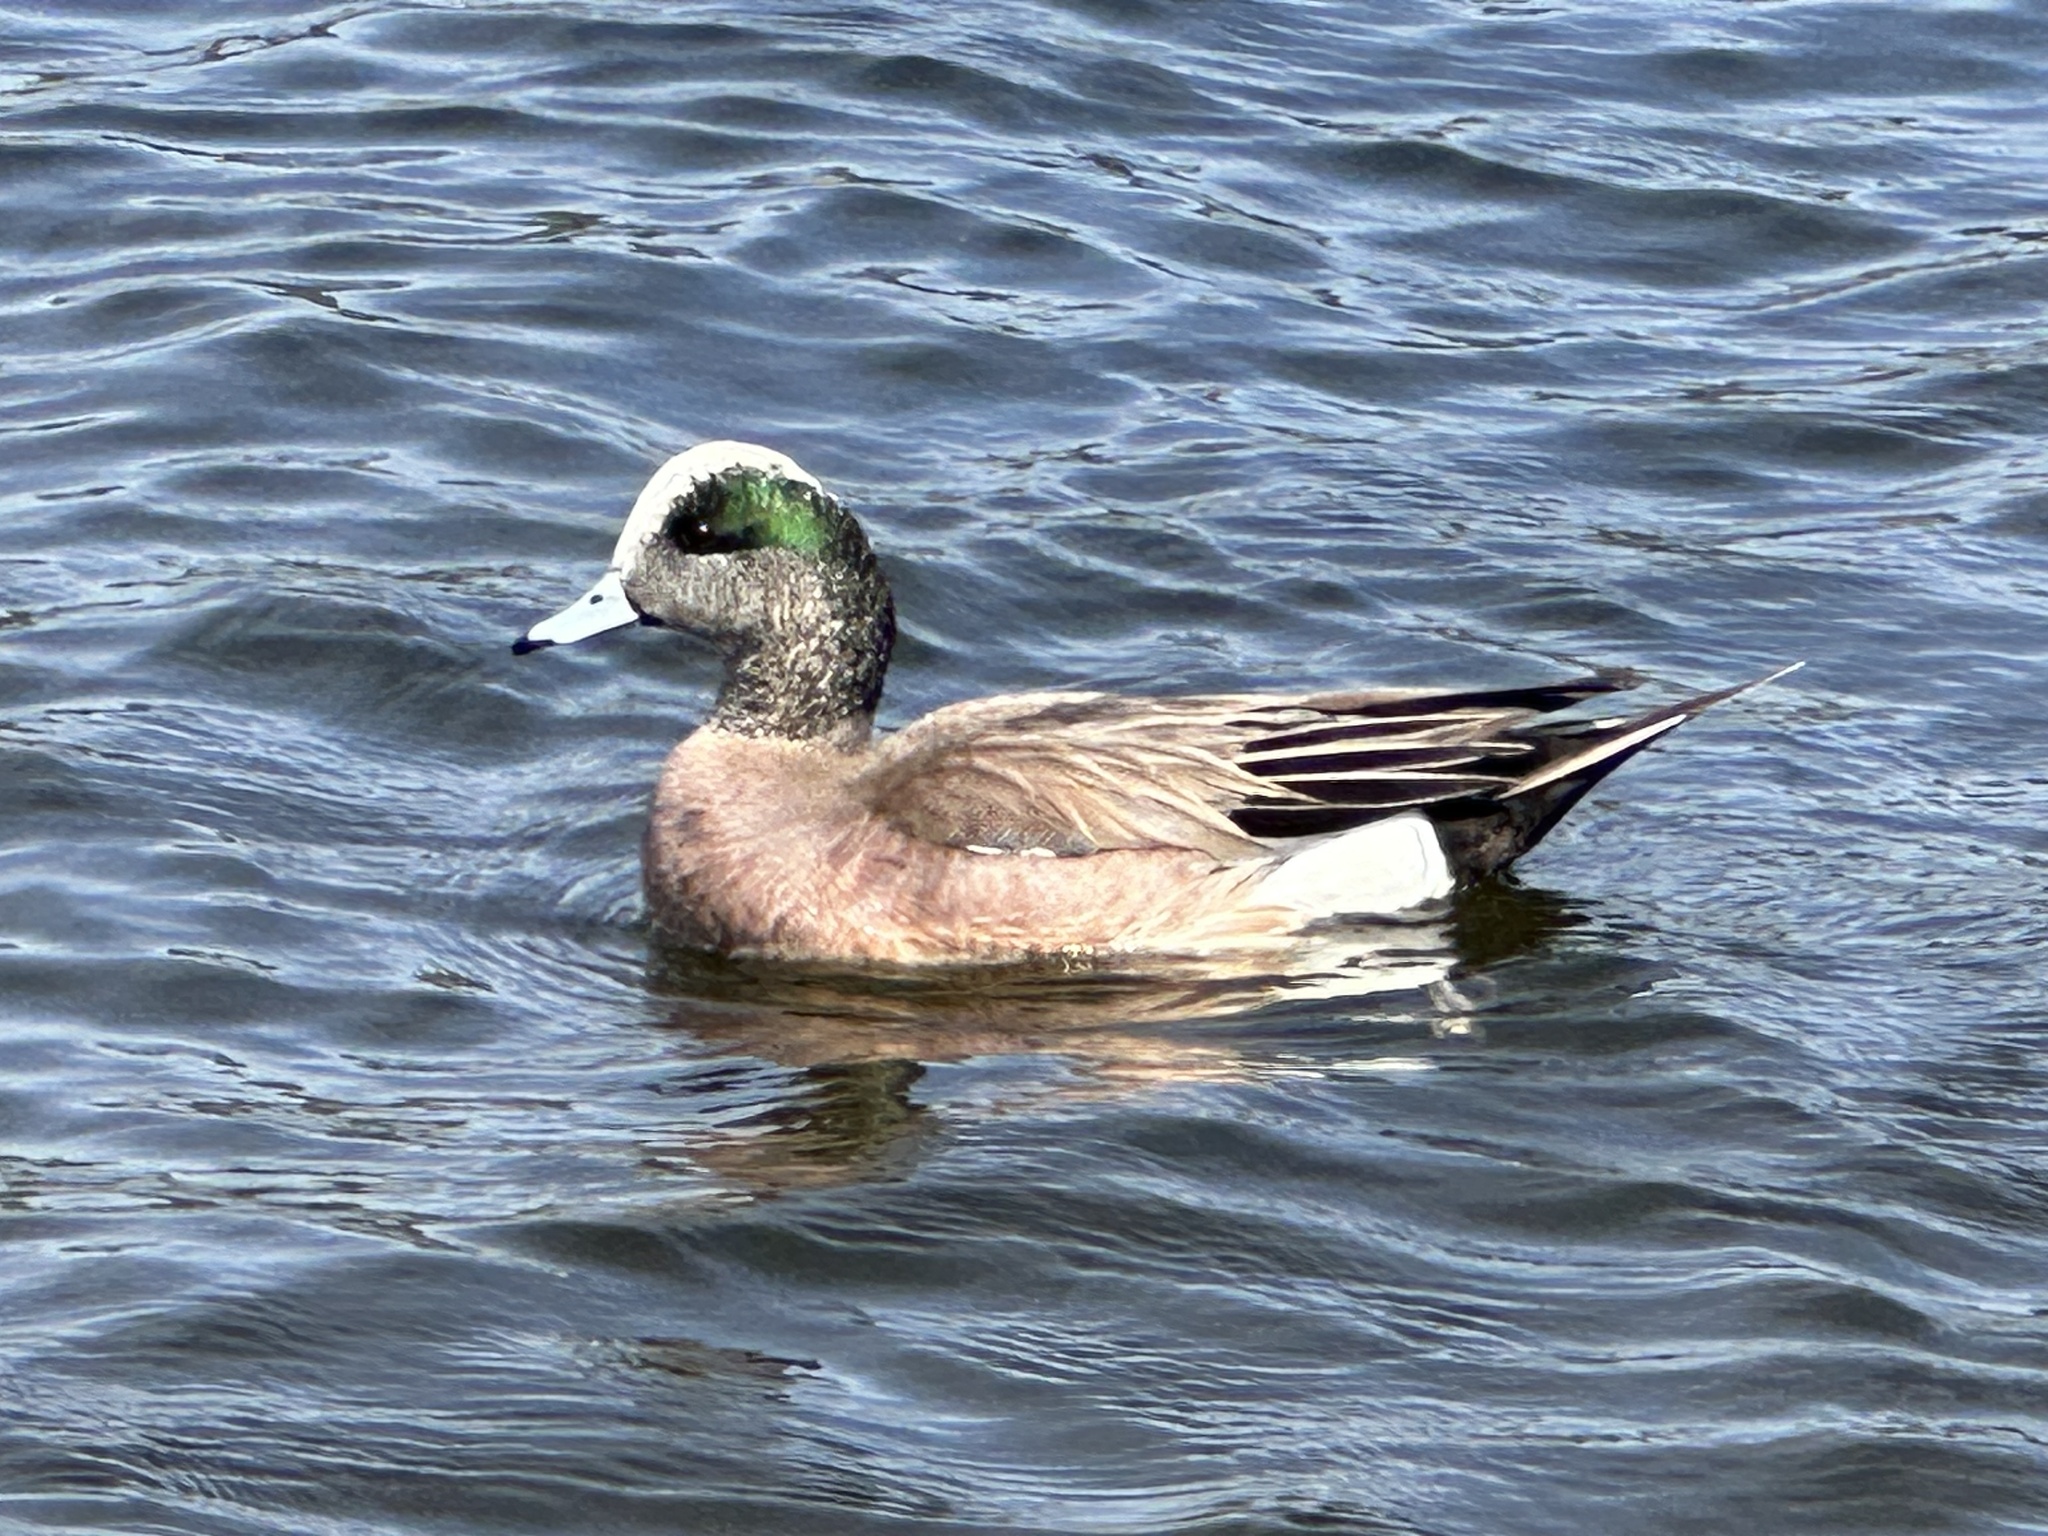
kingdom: Animalia
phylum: Chordata
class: Aves
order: Anseriformes
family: Anatidae
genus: Mareca
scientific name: Mareca americana
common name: American wigeon
